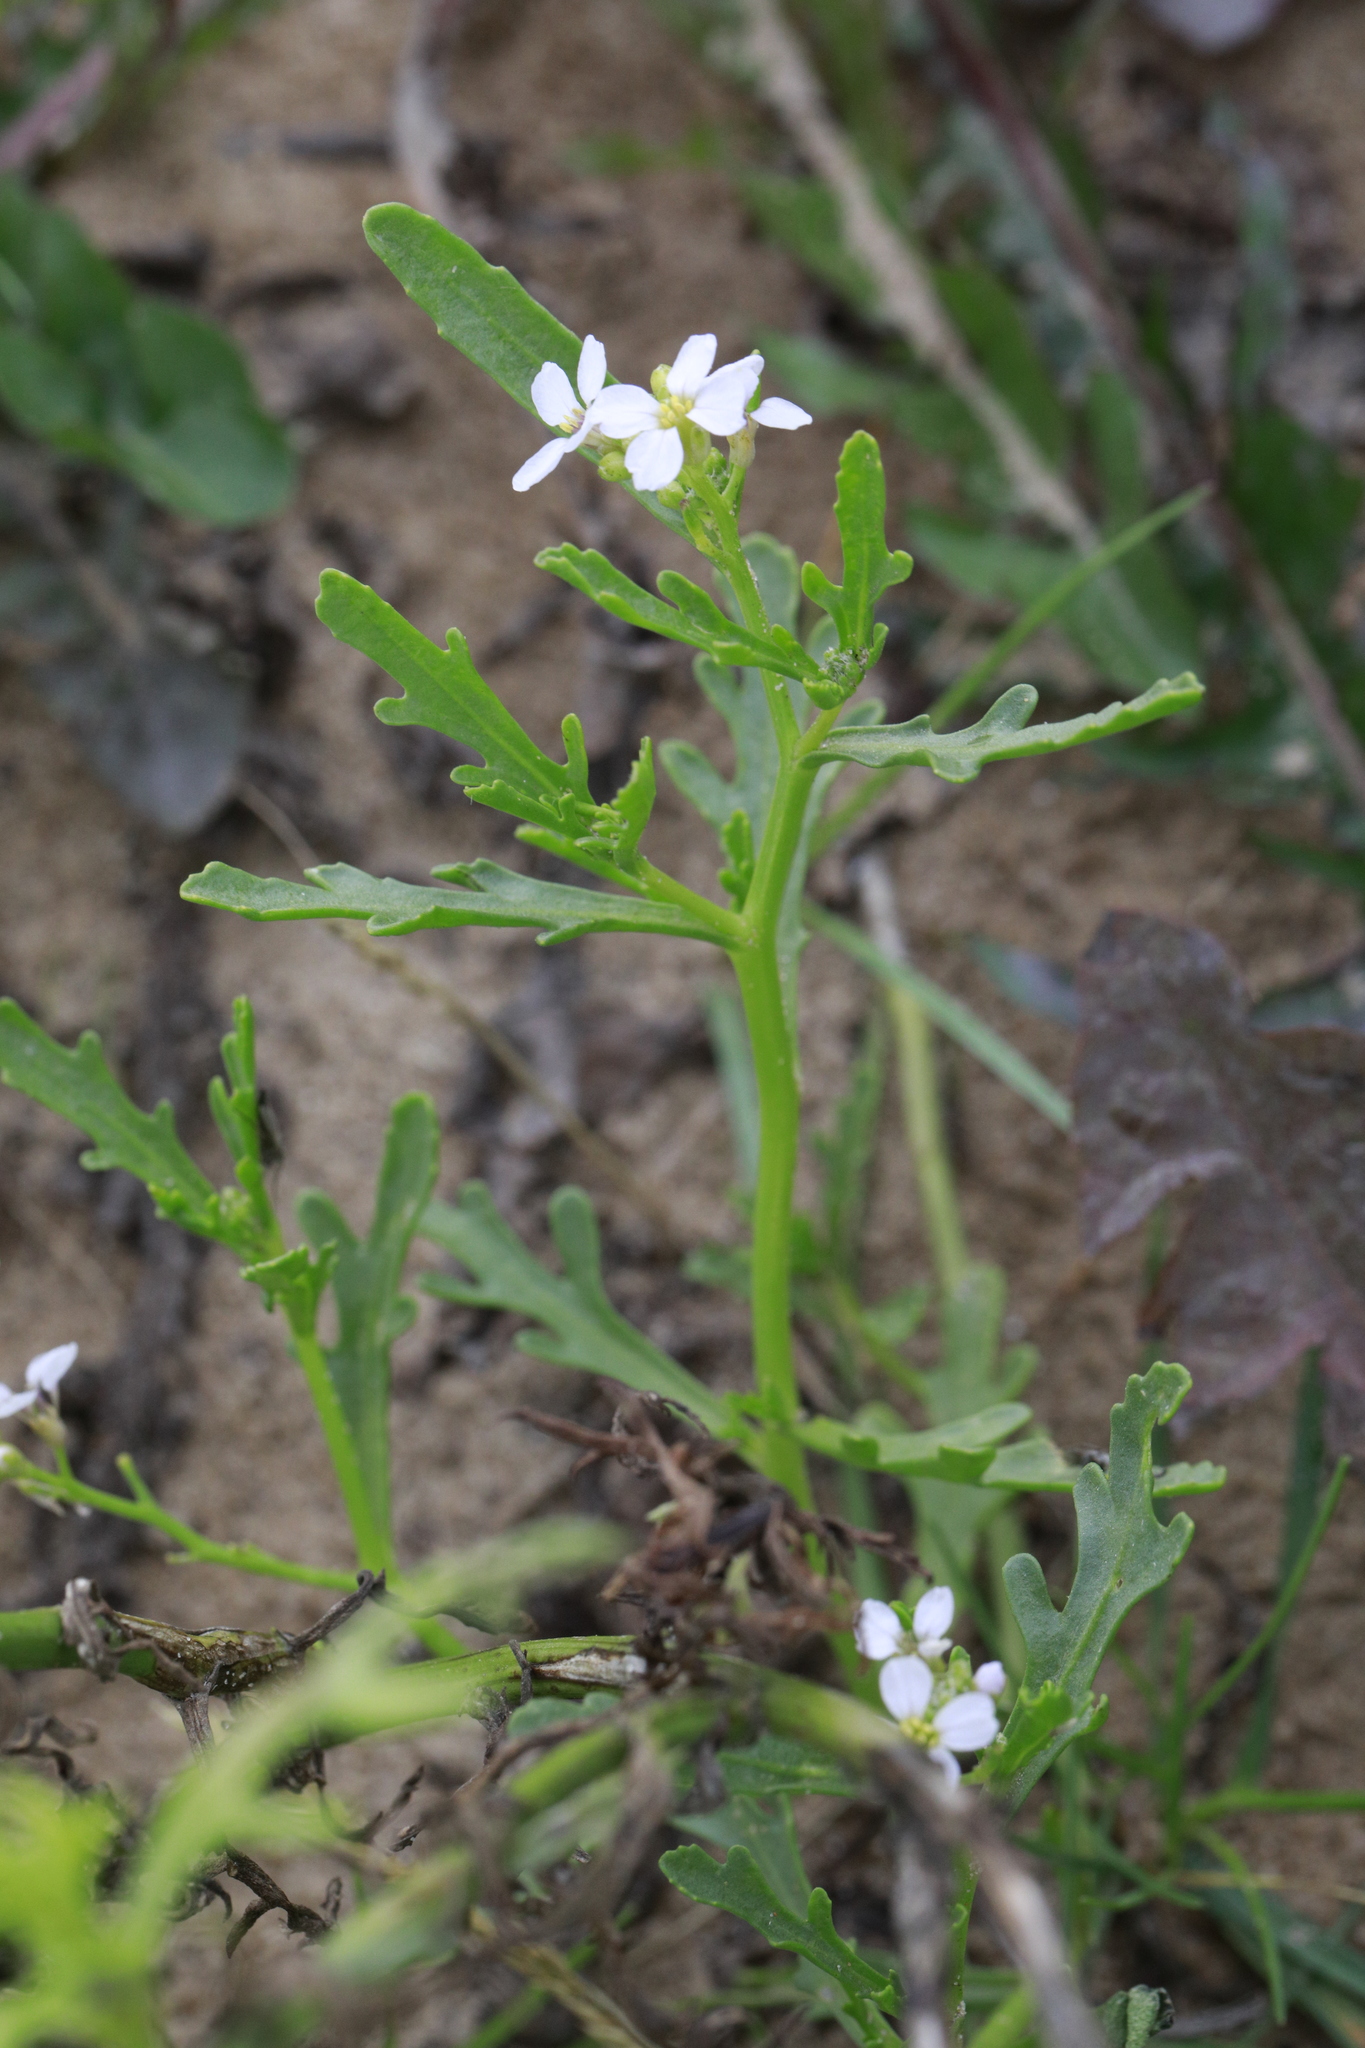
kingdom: Plantae
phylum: Tracheophyta
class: Magnoliopsida
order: Brassicales
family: Brassicaceae
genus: Cakile
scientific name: Cakile maritima
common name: Sea rocket
